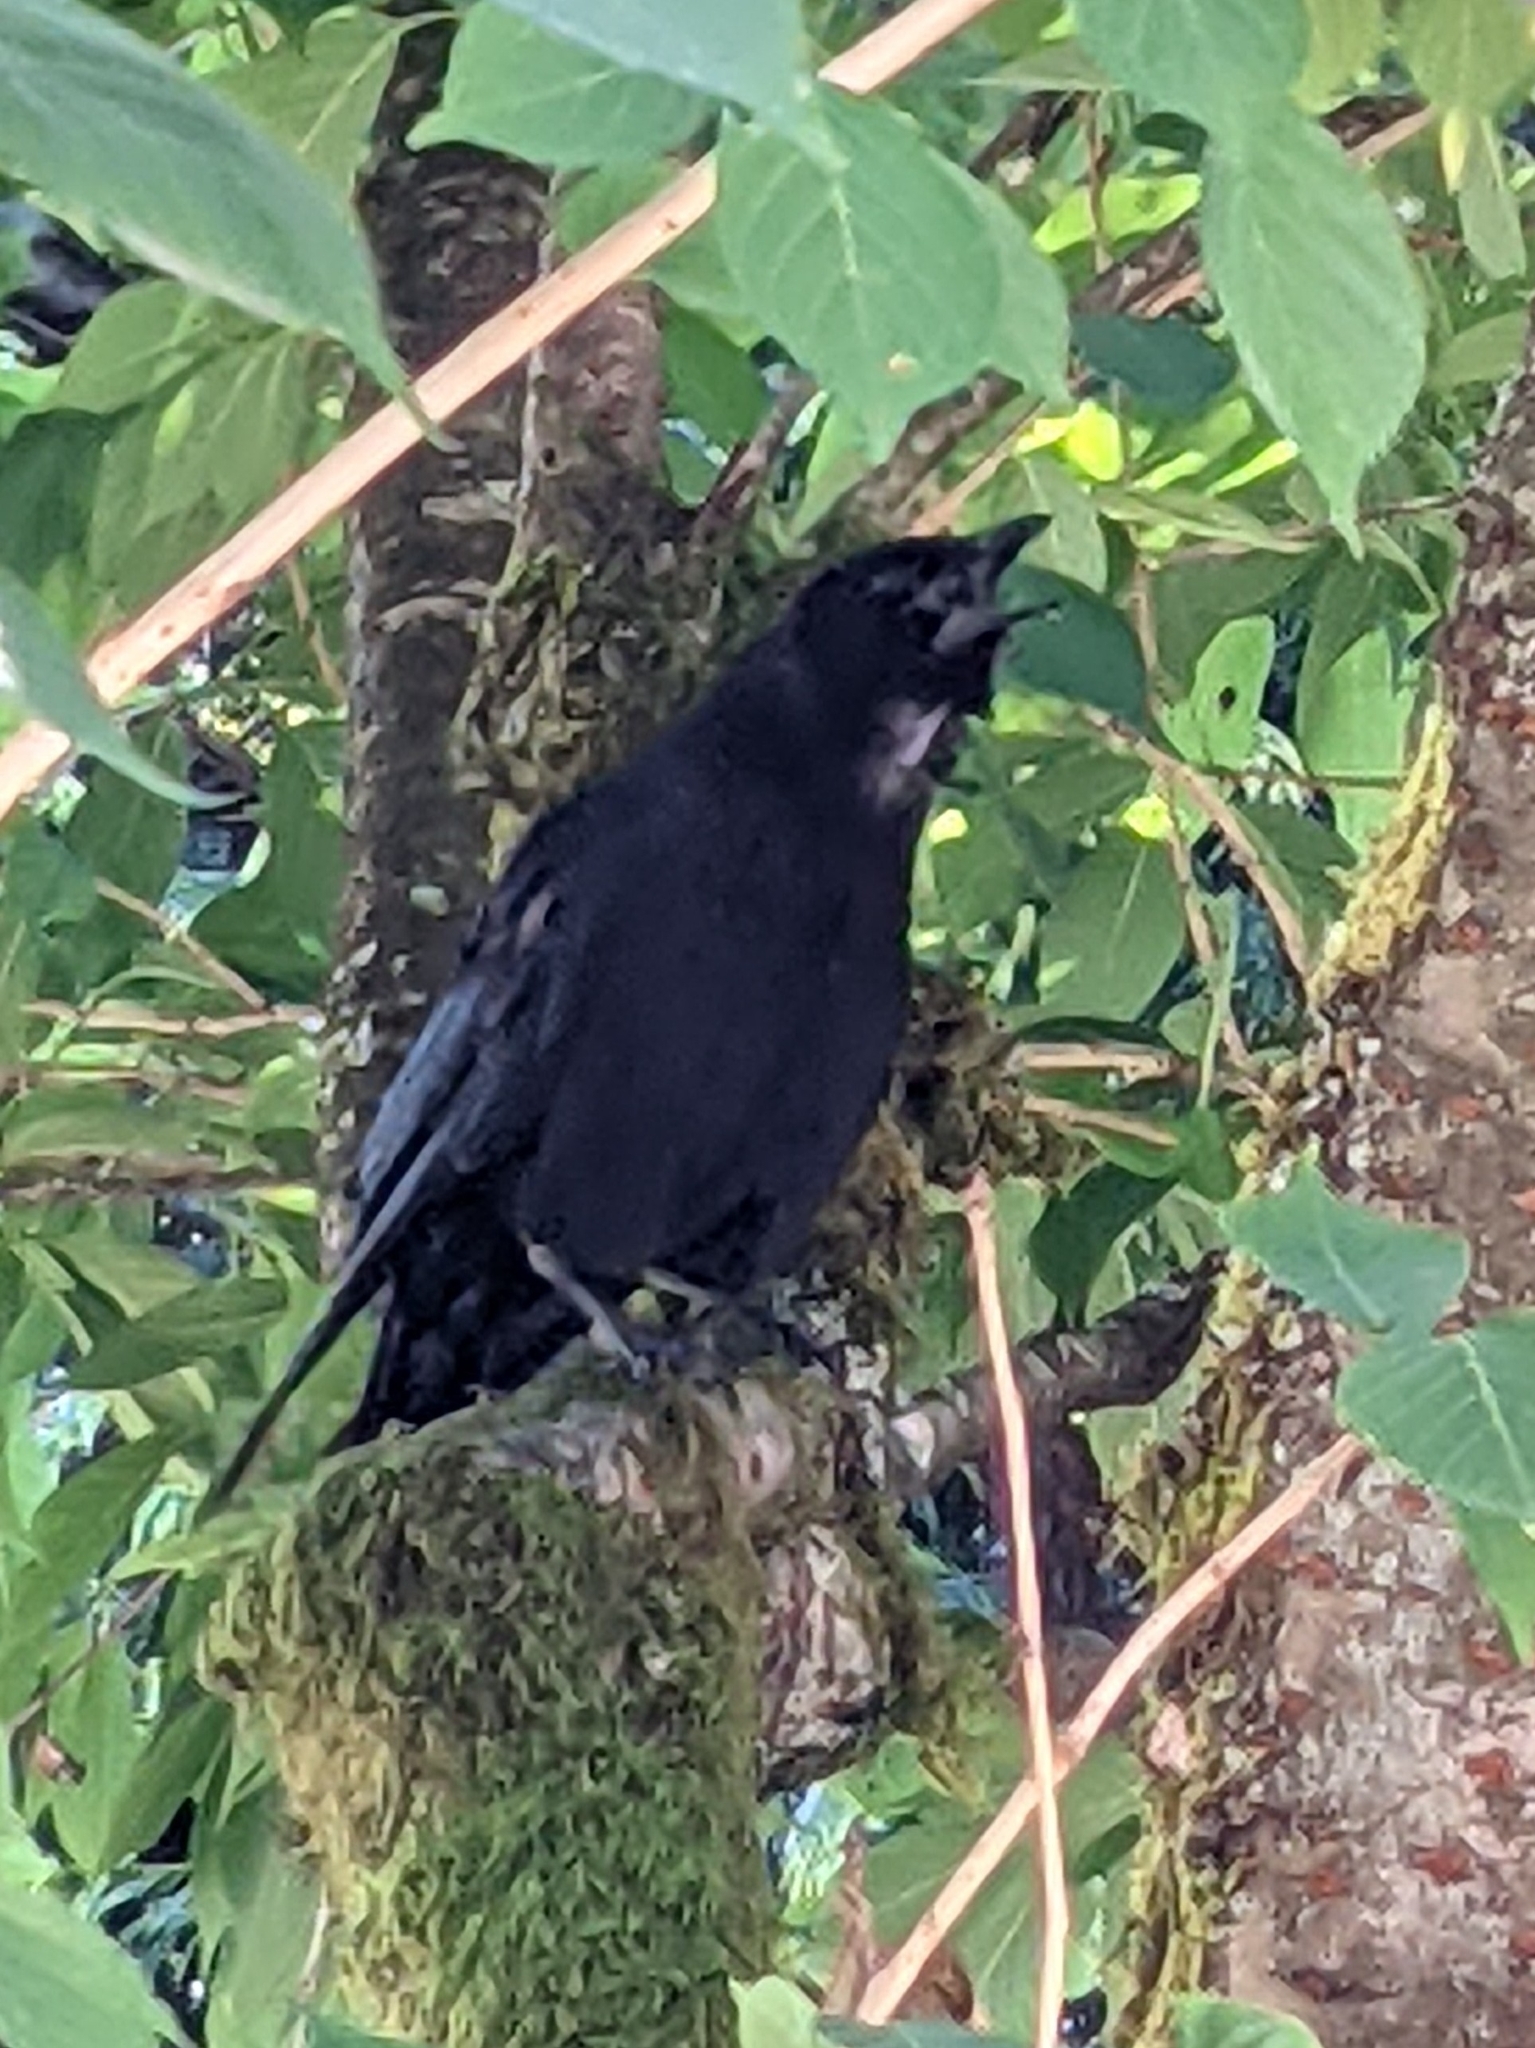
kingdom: Animalia
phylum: Chordata
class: Aves
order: Passeriformes
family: Corvidae
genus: Corvus
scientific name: Corvus brachyrhynchos
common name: American crow
